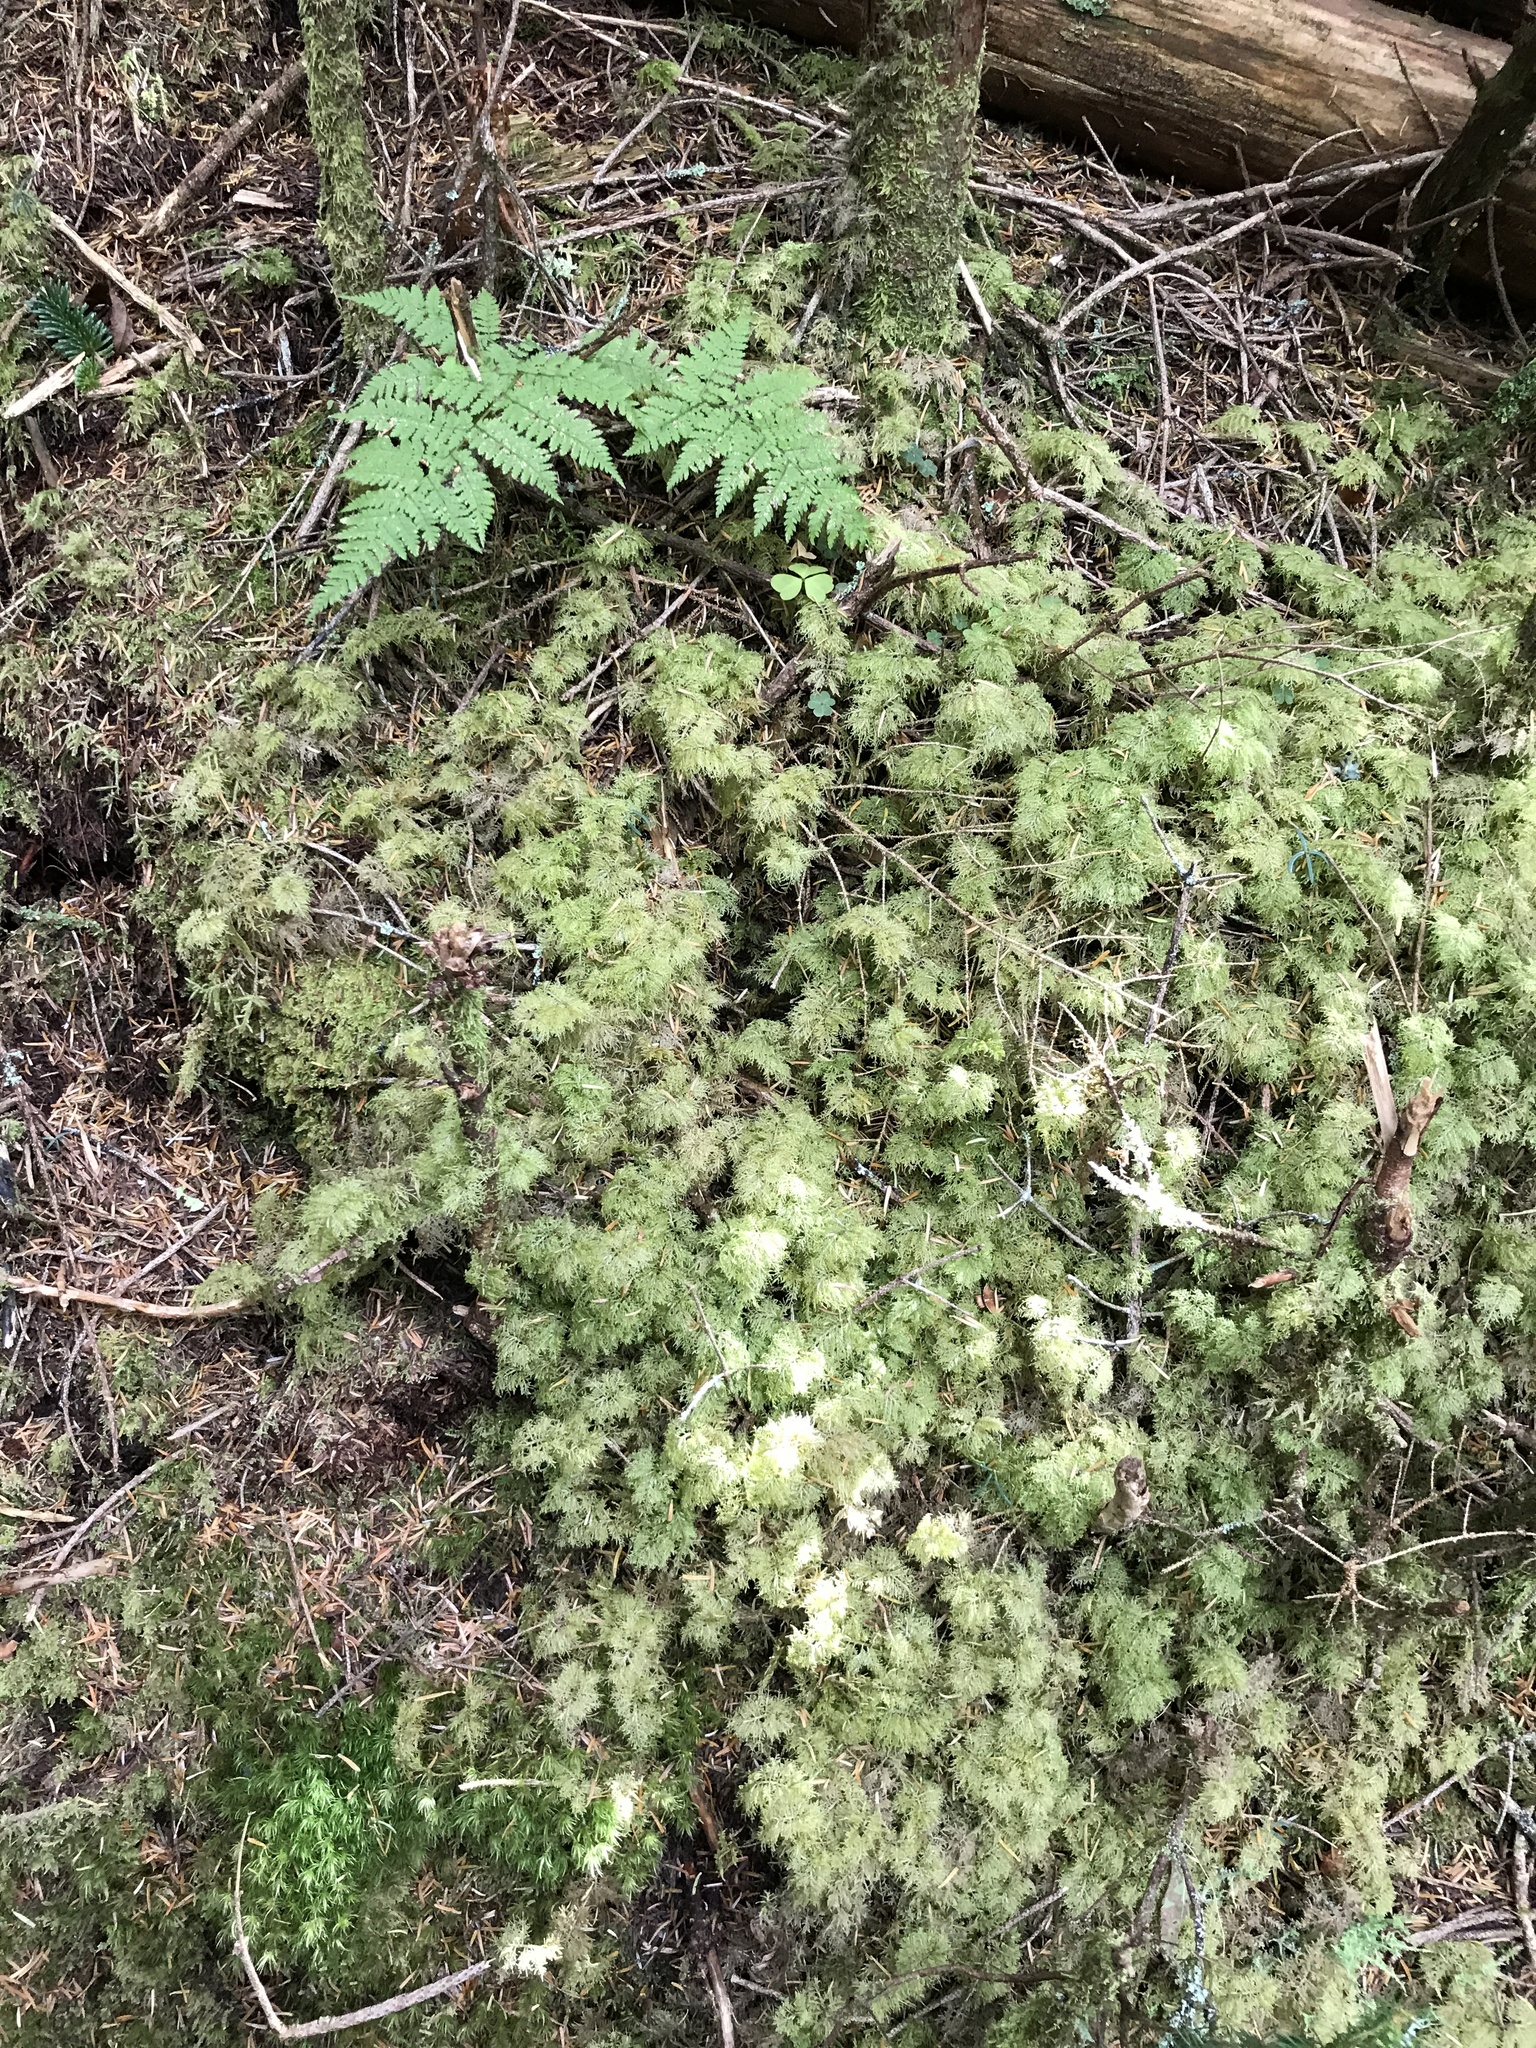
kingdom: Plantae
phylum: Bryophyta
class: Bryopsida
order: Hypnales
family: Hylocomiaceae
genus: Hylocomium
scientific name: Hylocomium splendens
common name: Stairstep moss
